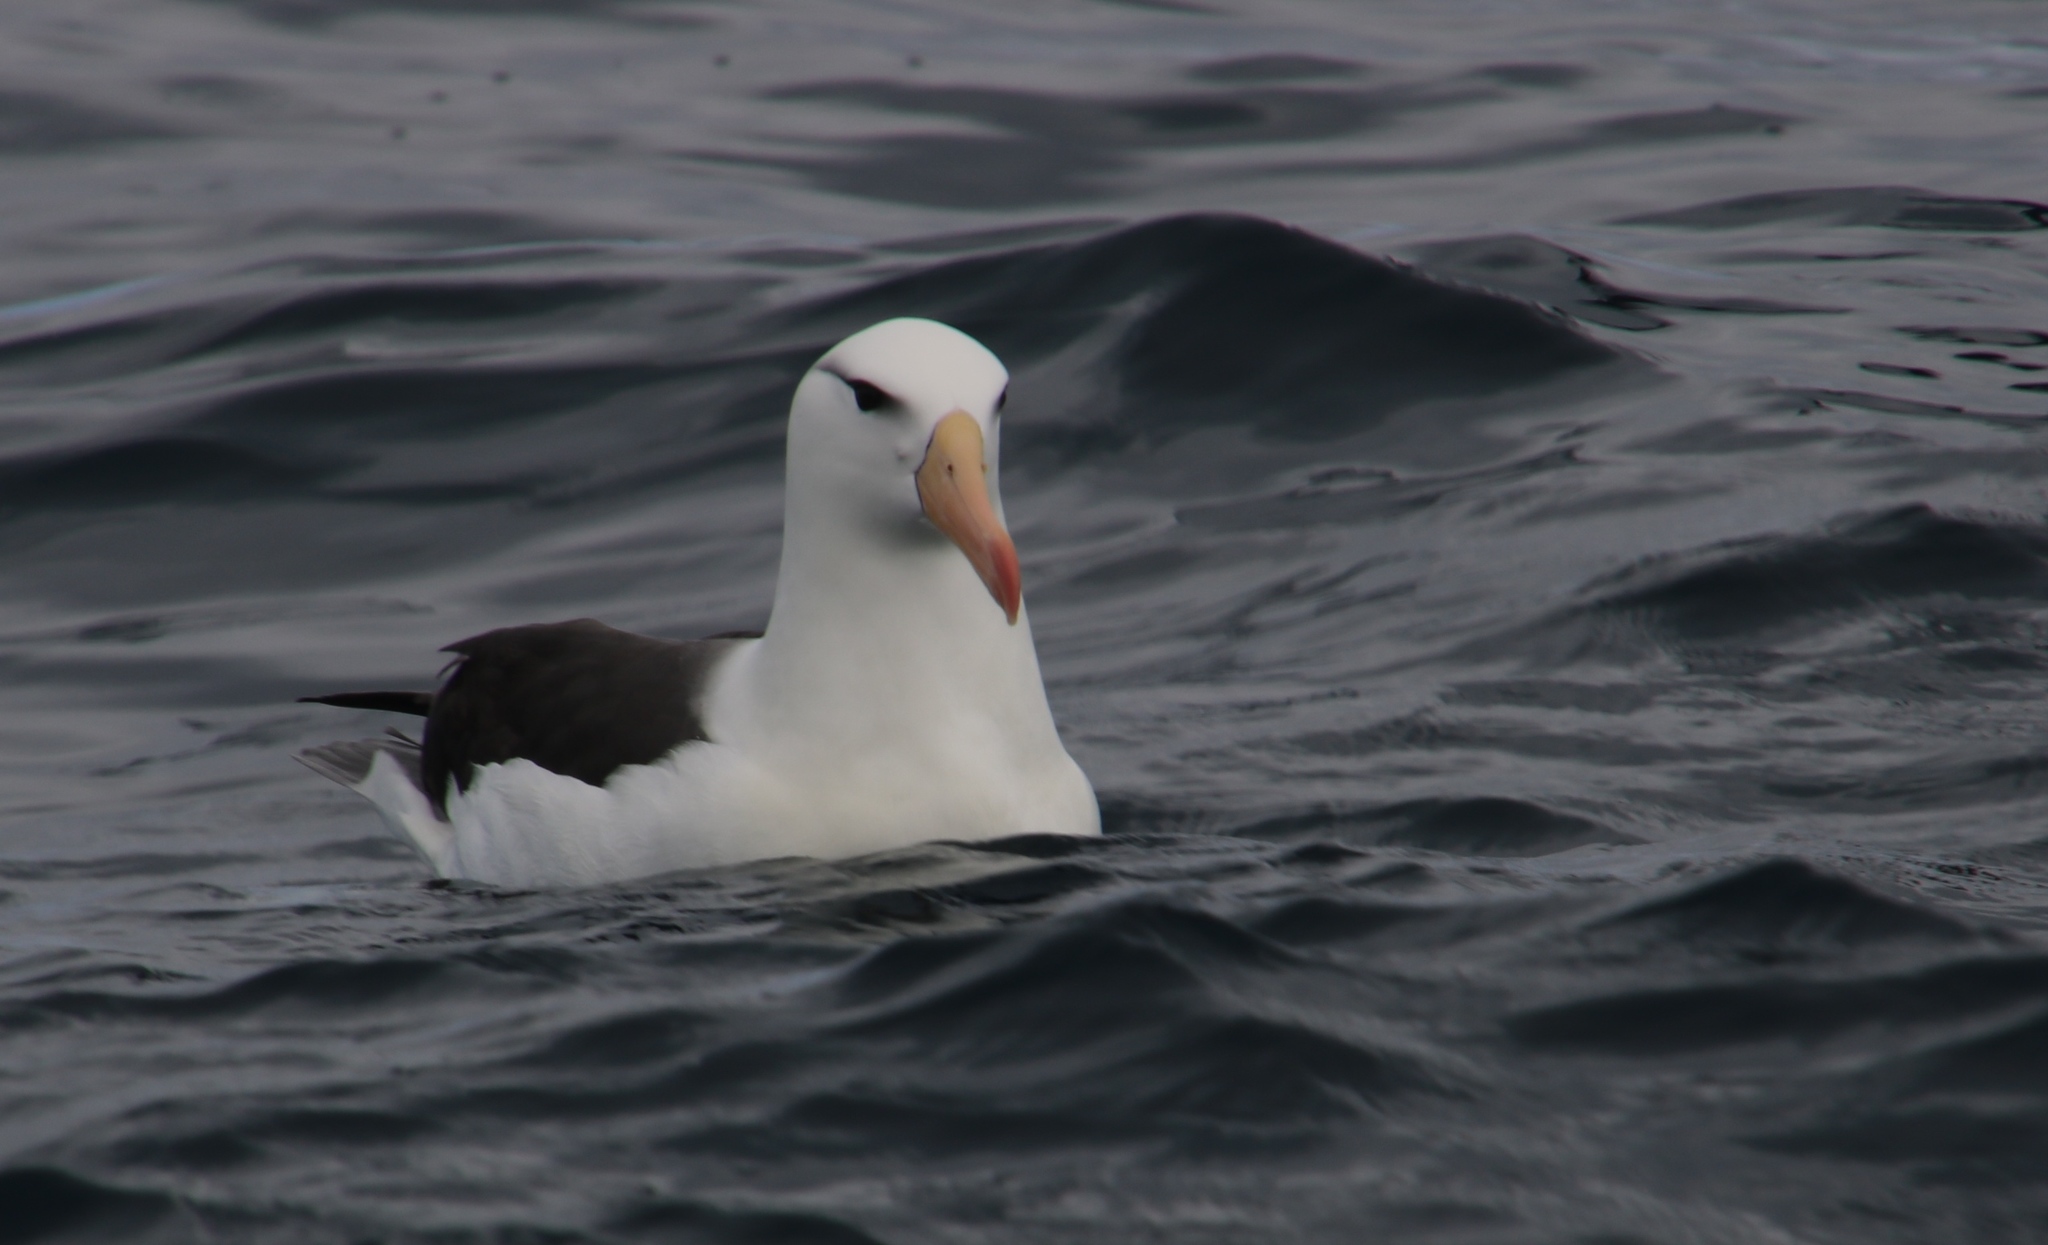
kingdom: Animalia
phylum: Chordata
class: Aves
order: Procellariiformes
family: Diomedeidae
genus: Thalassarche
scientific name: Thalassarche melanophris
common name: Black-browed albatross
